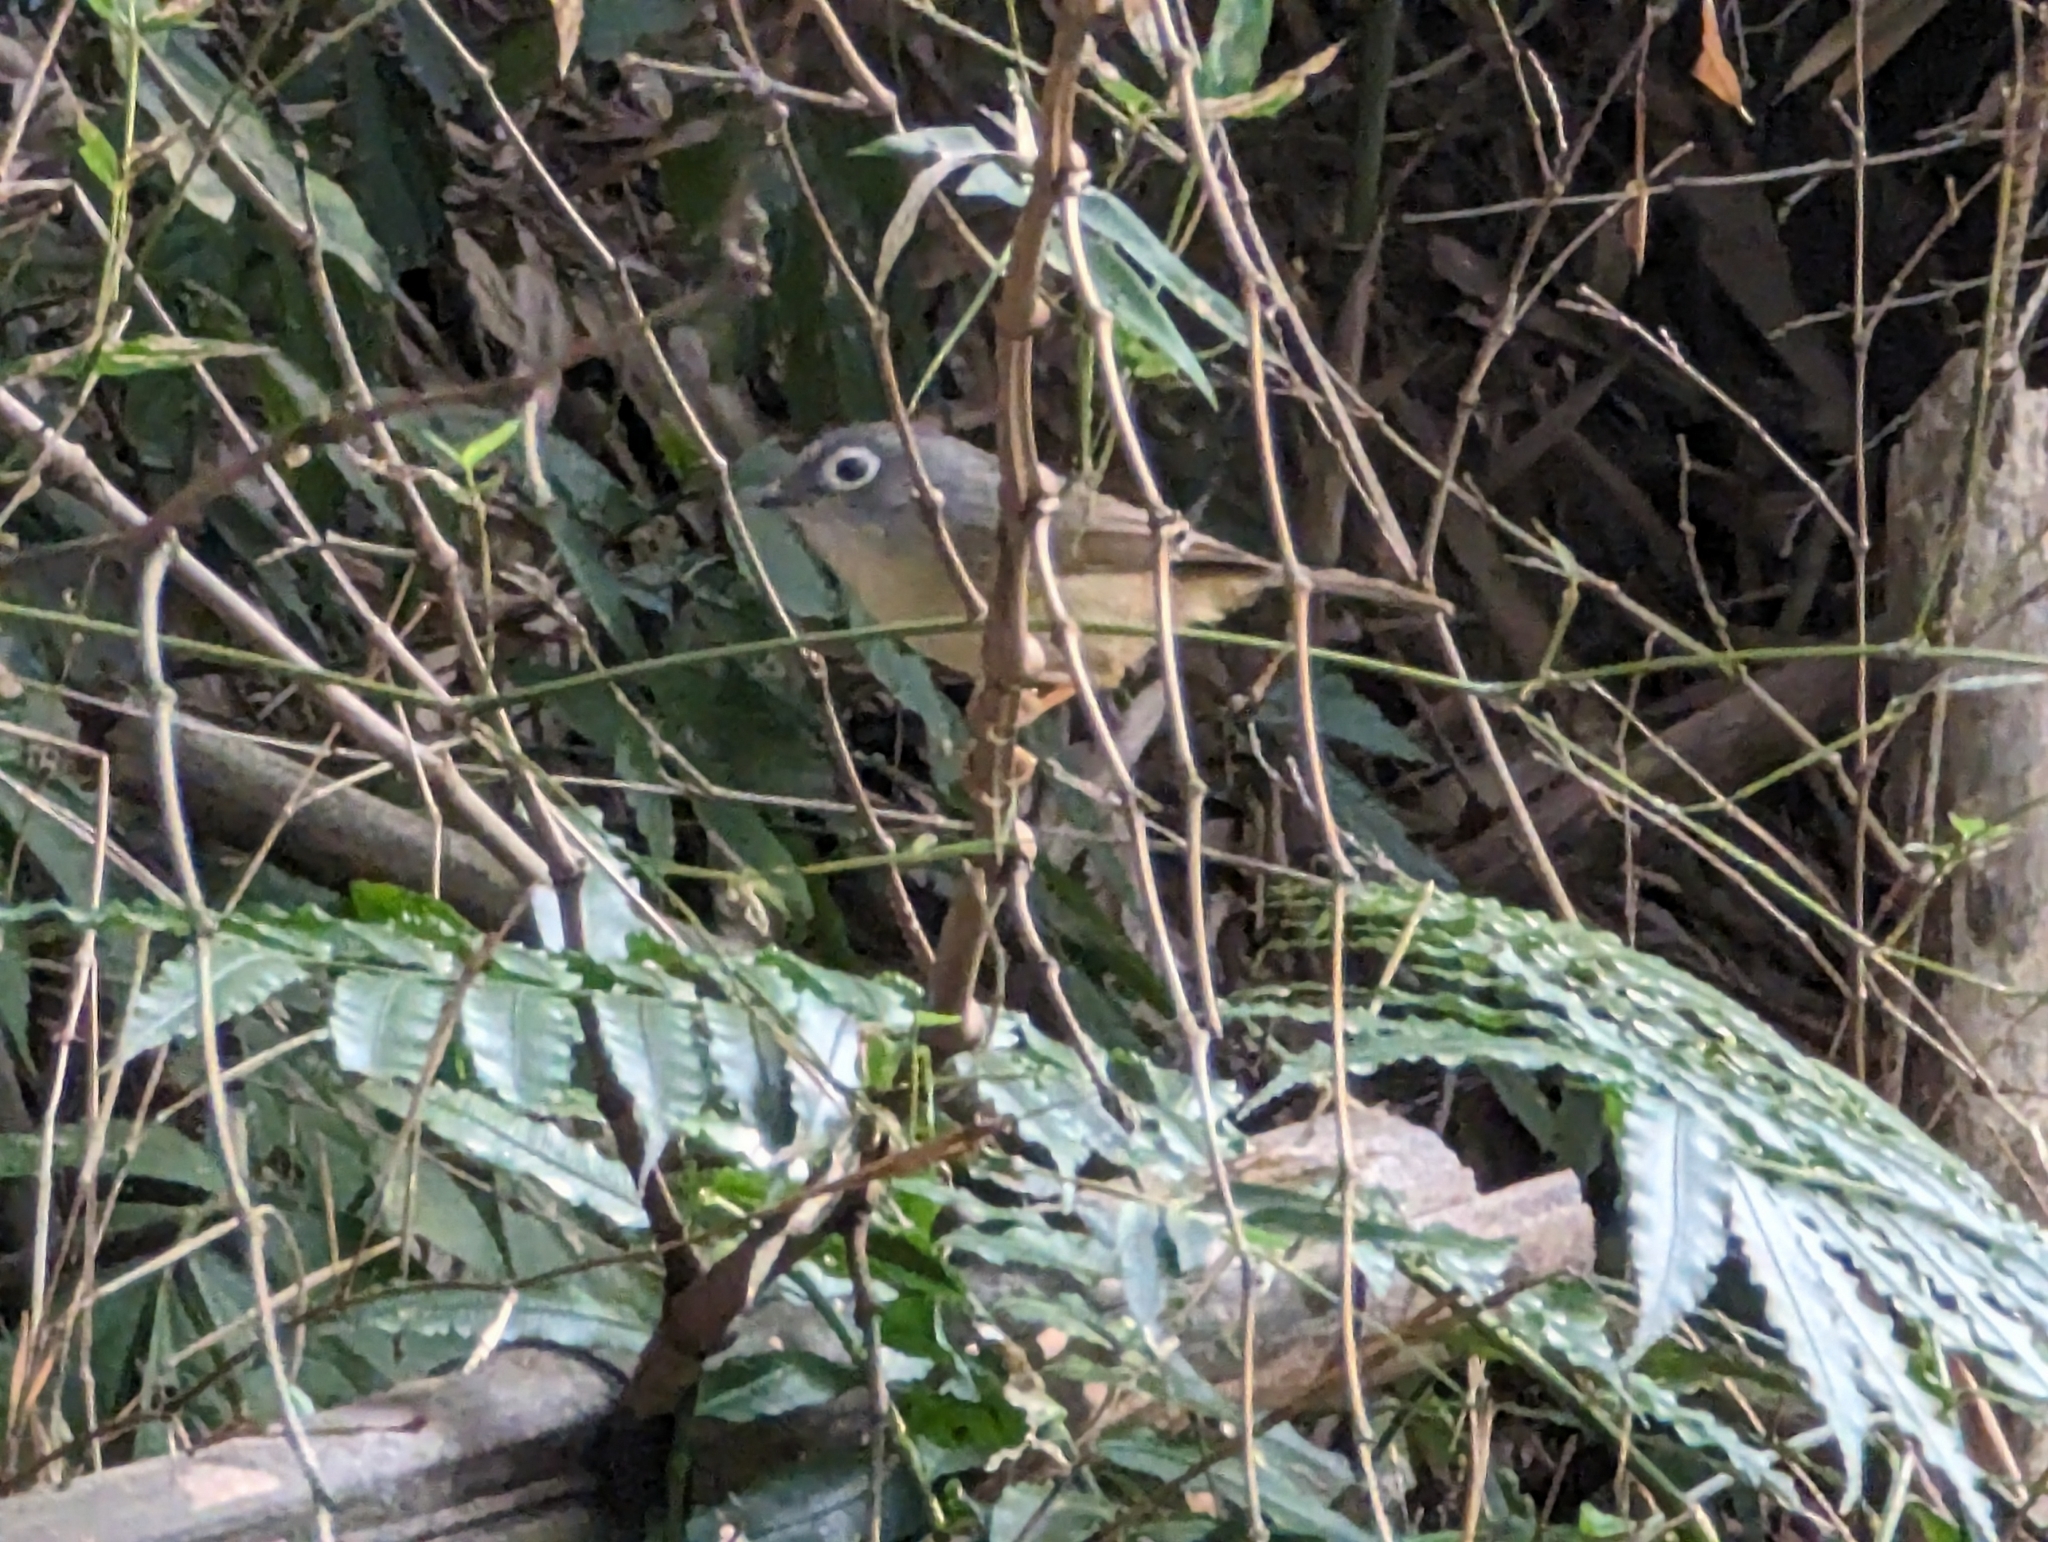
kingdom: Animalia
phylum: Chordata
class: Aves
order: Passeriformes
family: Pellorneidae
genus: Alcippe
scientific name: Alcippe morrisonia
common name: Grey-cheeked fulvetta
